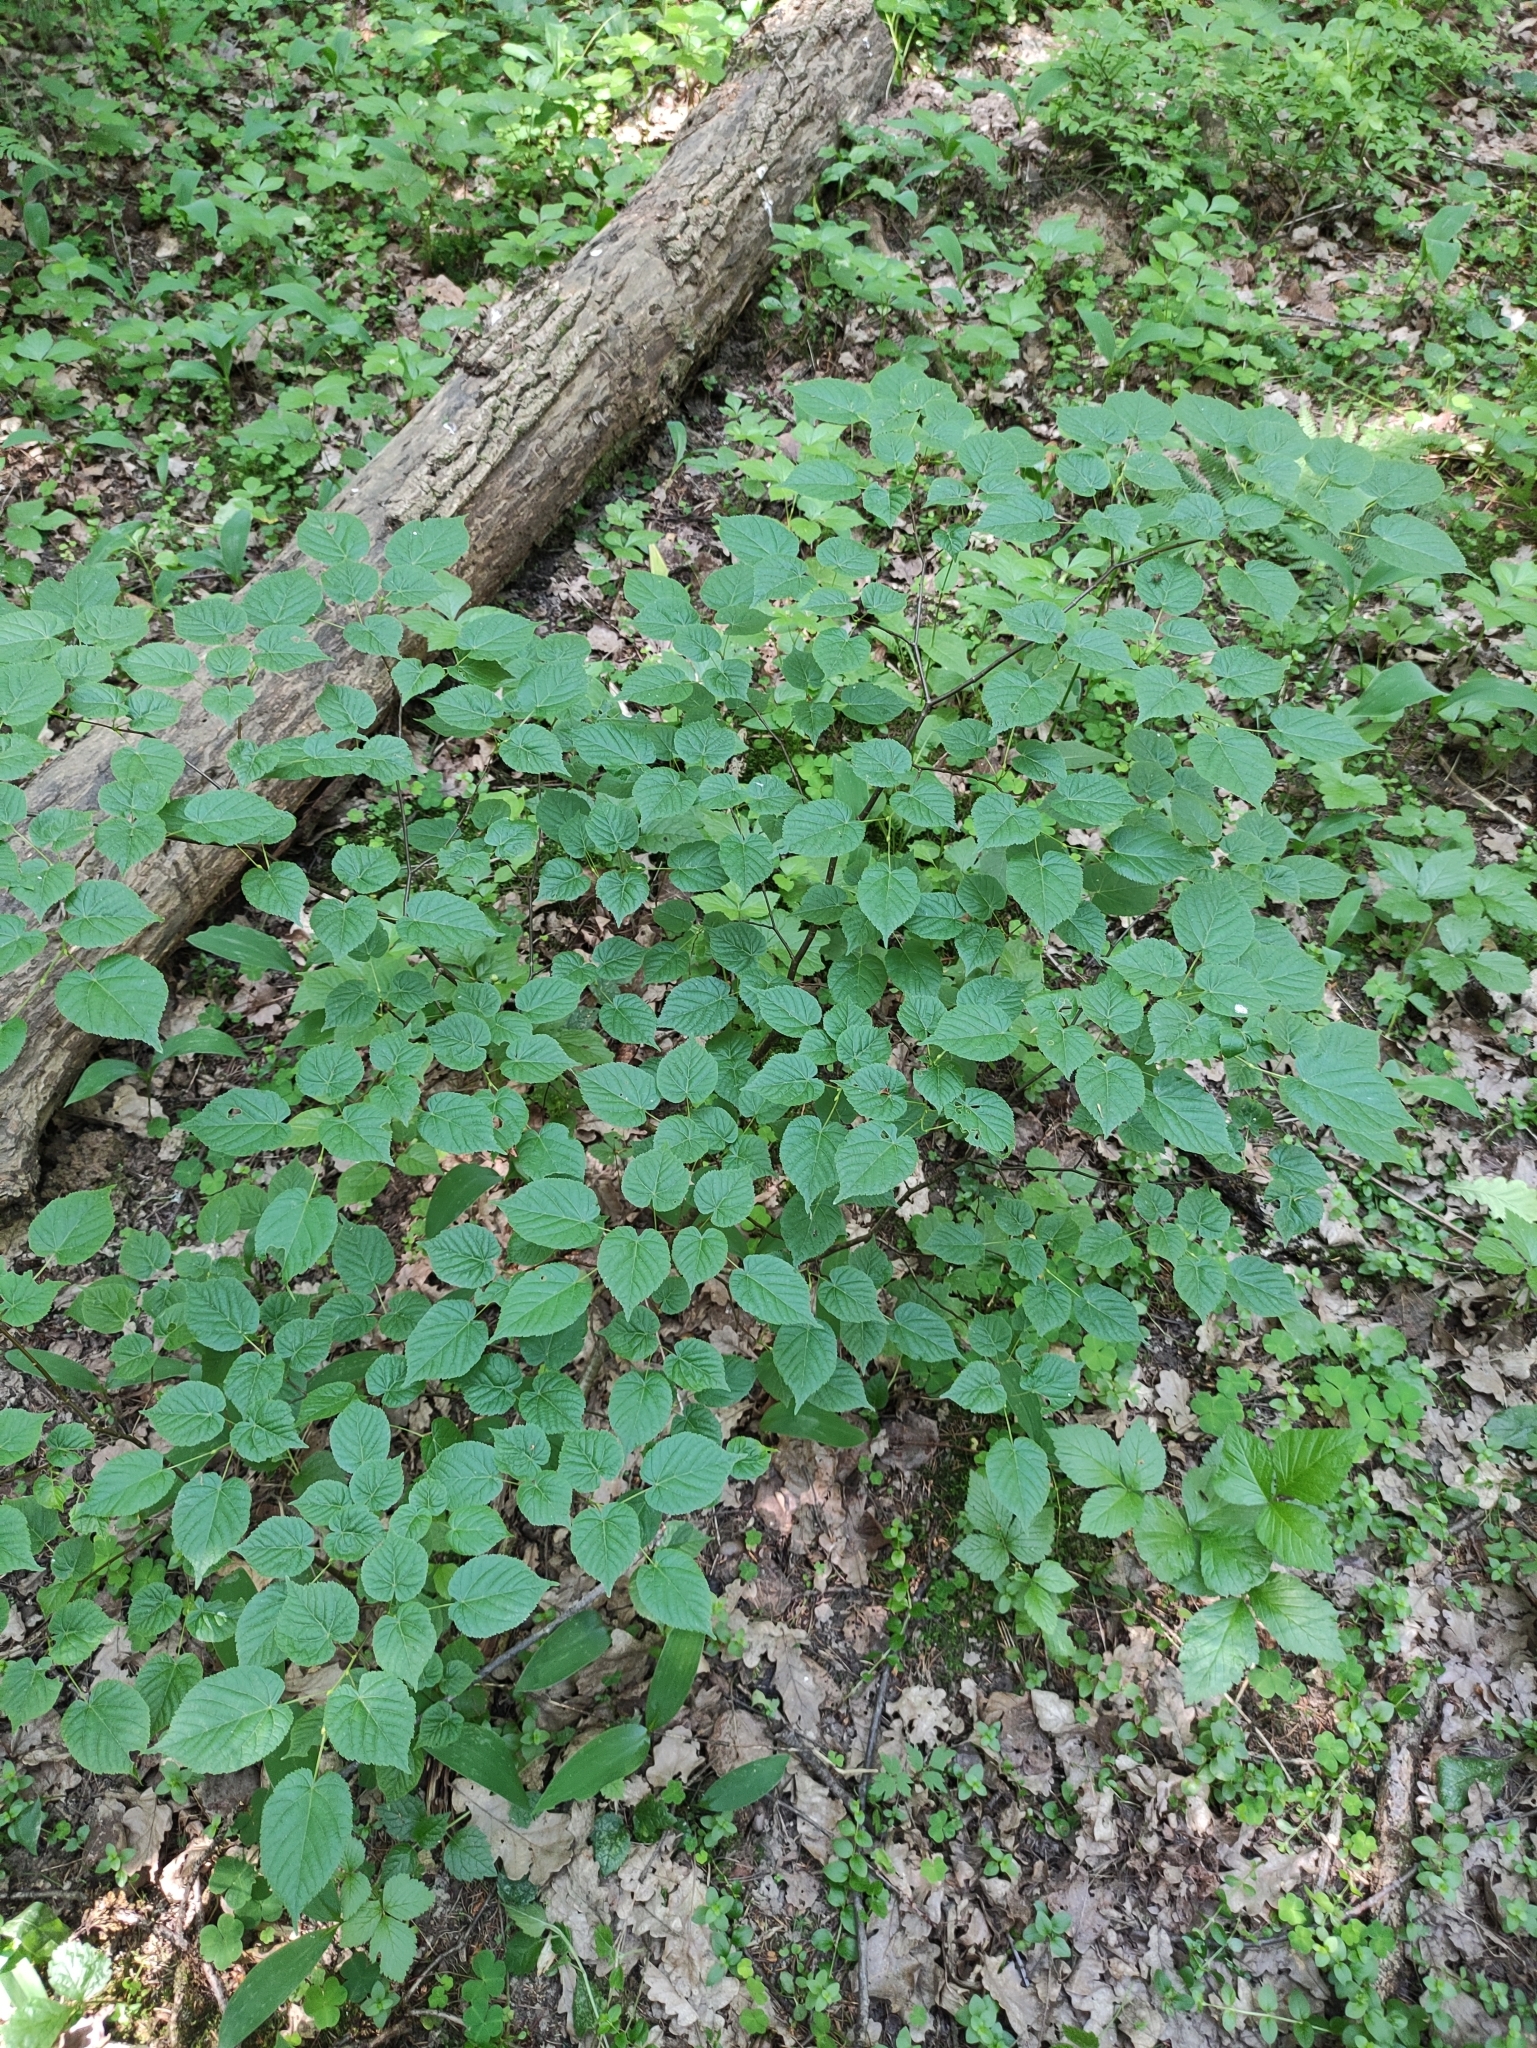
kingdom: Plantae
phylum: Tracheophyta
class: Magnoliopsida
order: Malvales
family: Malvaceae
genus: Tilia
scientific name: Tilia cordata
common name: Small-leaved lime
